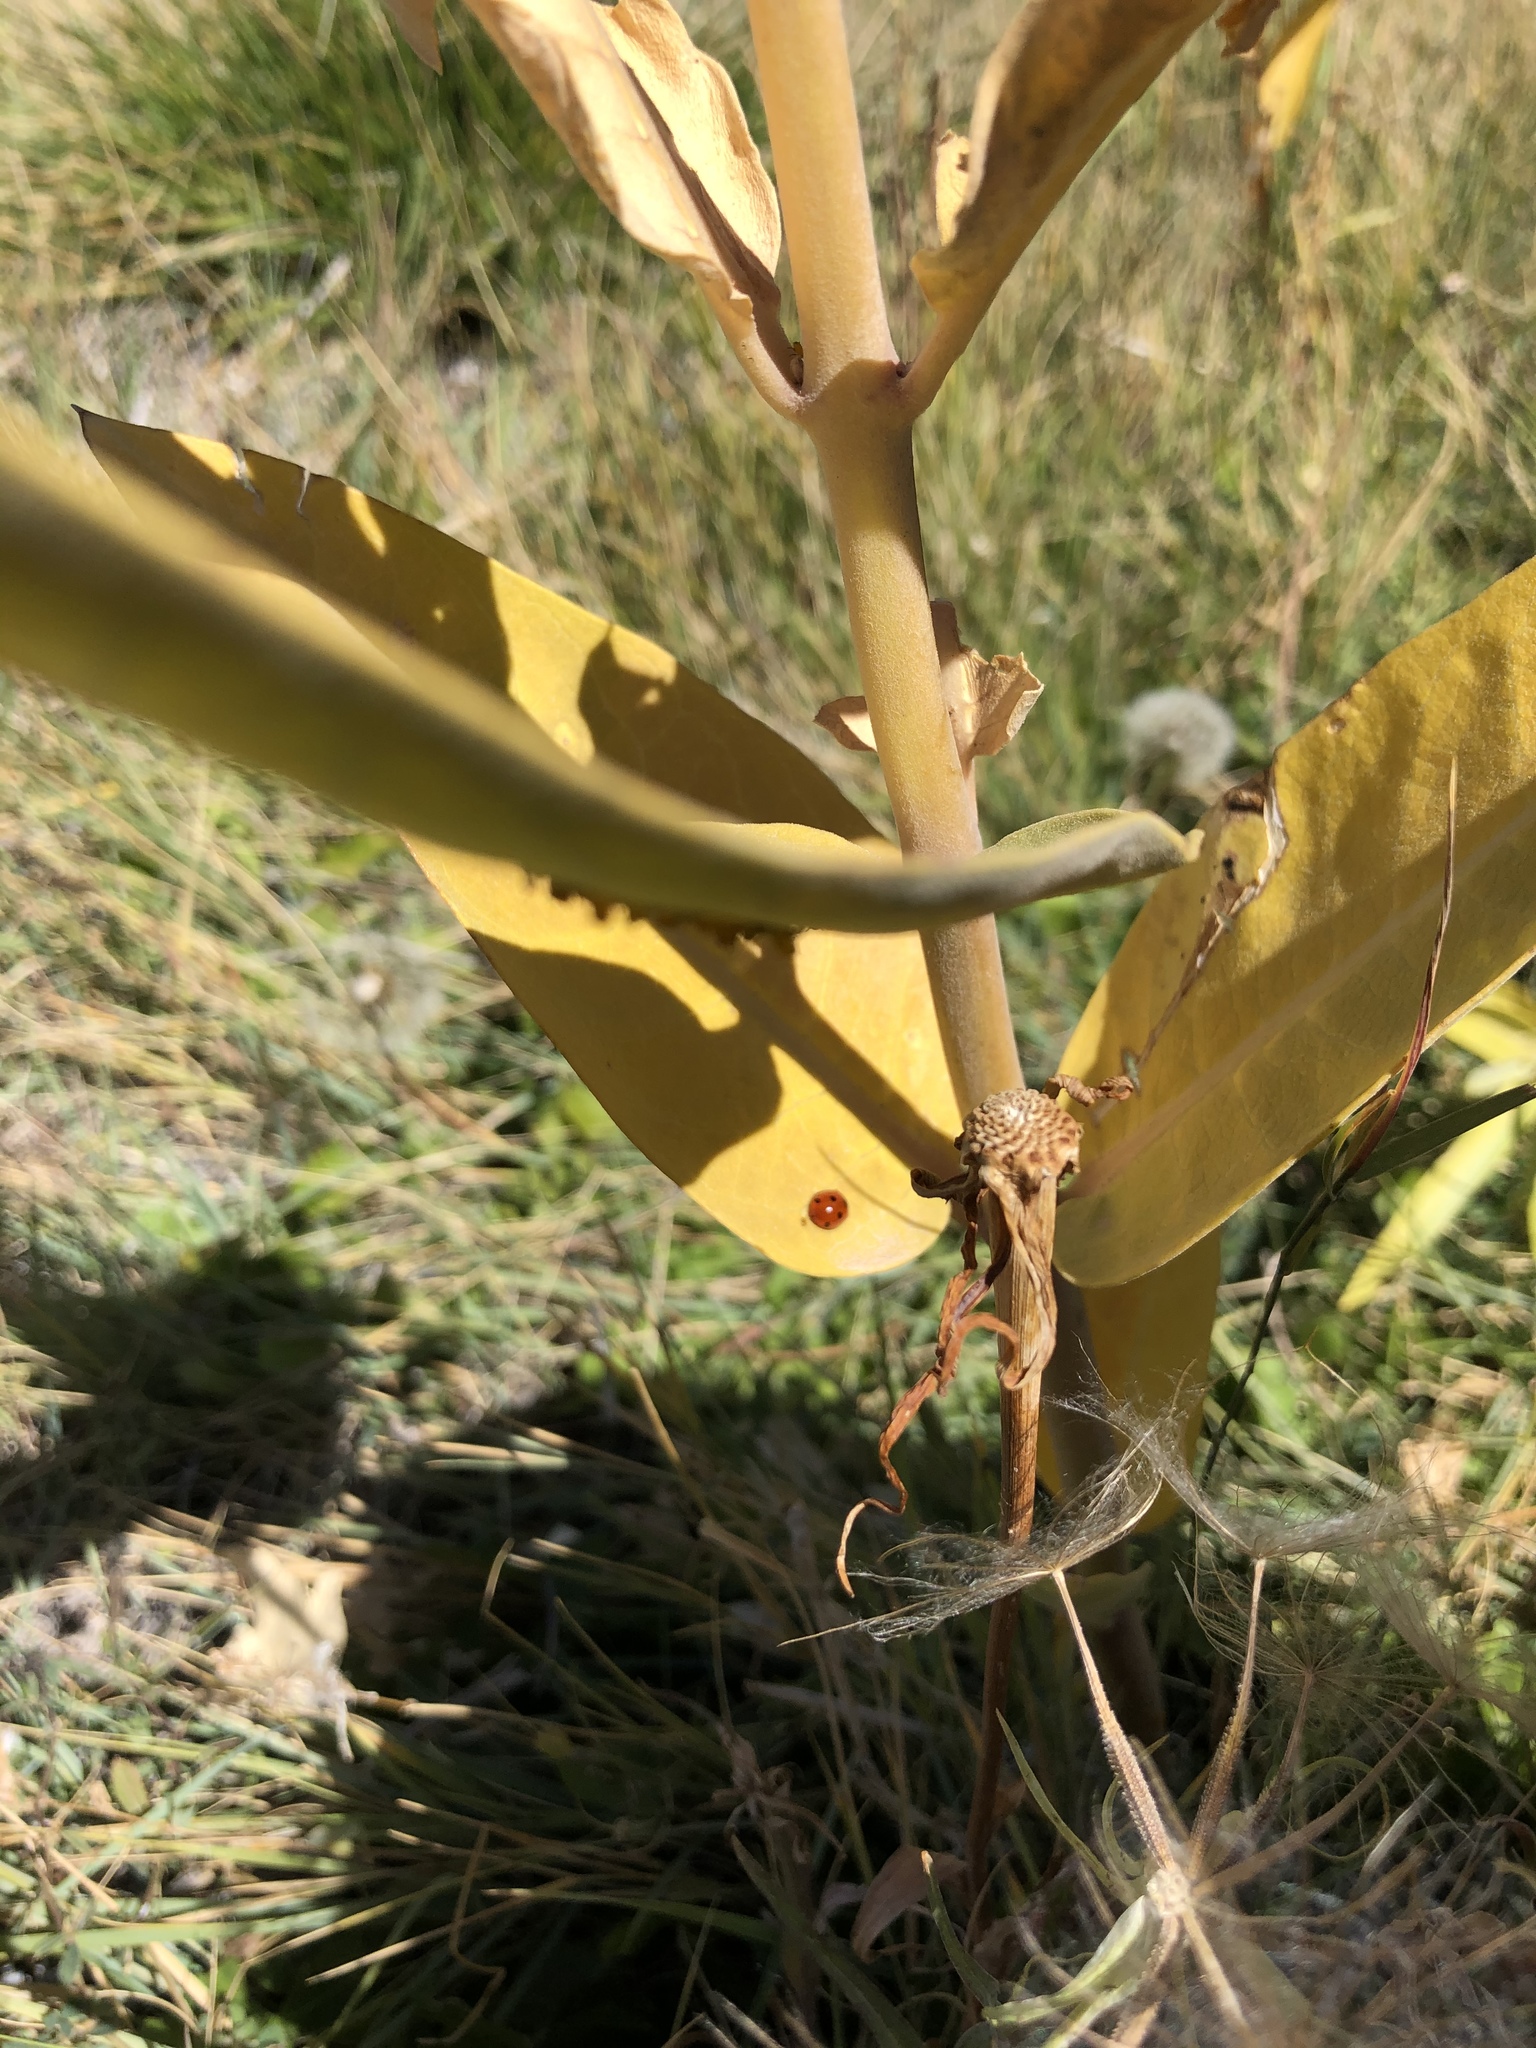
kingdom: Animalia
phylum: Arthropoda
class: Insecta
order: Hemiptera
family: Aphididae
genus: Aphis
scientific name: Aphis nerii
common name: Oleander aphid
